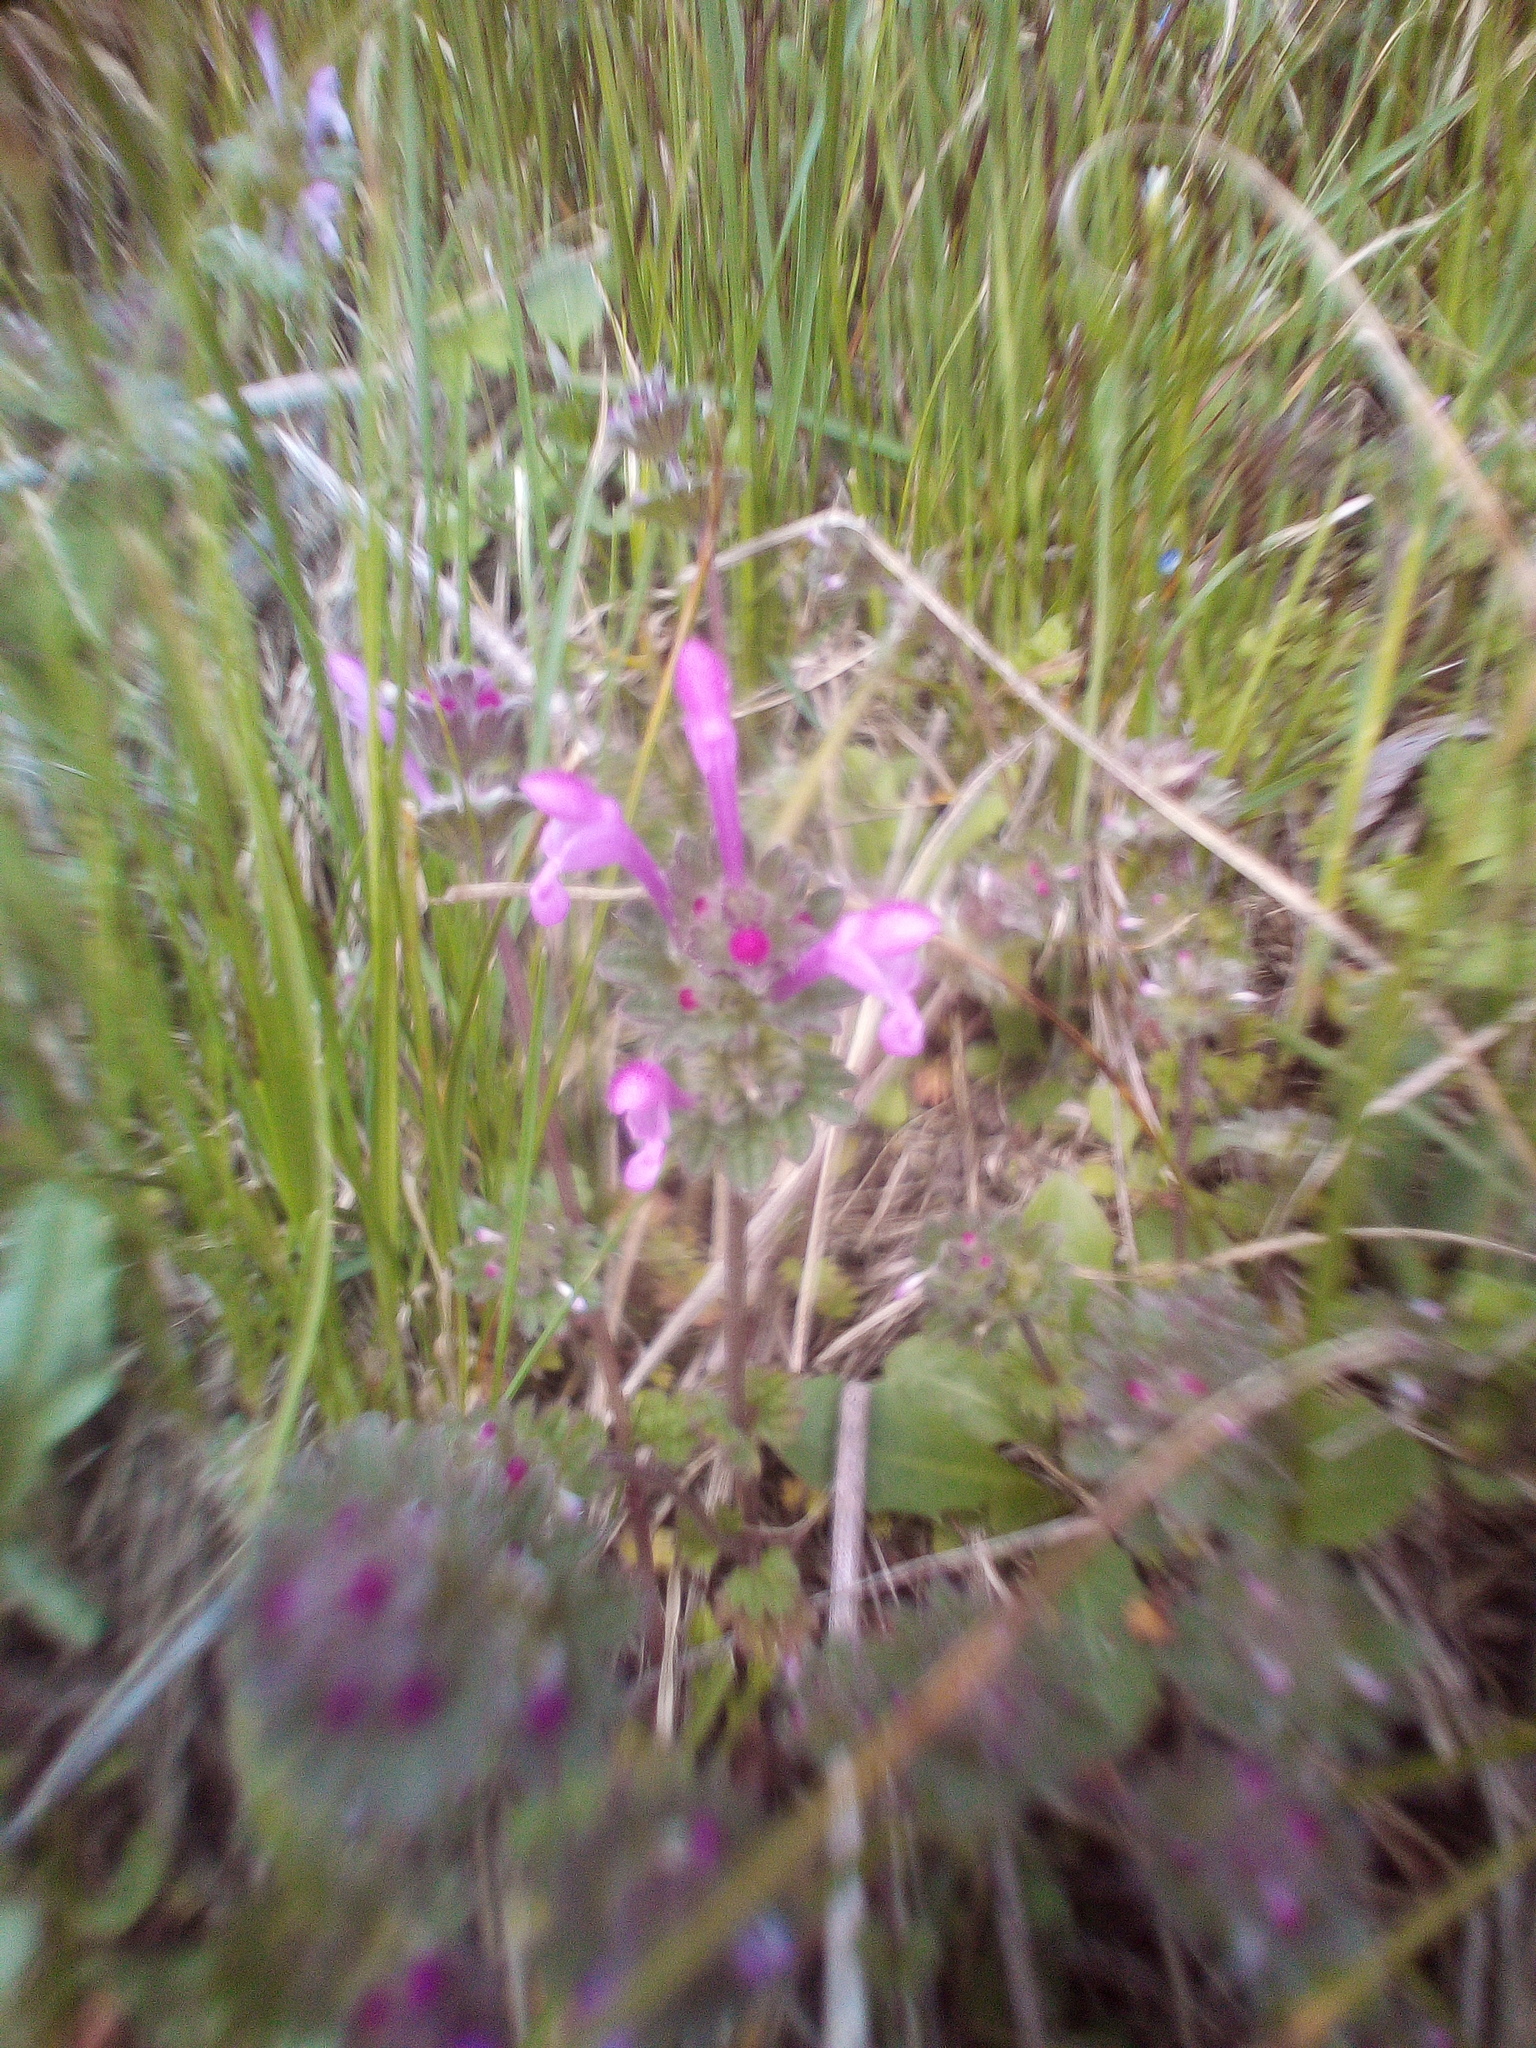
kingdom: Plantae
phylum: Tracheophyta
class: Magnoliopsida
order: Lamiales
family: Lamiaceae
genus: Lamium
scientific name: Lamium amplexicaule
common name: Henbit dead-nettle
